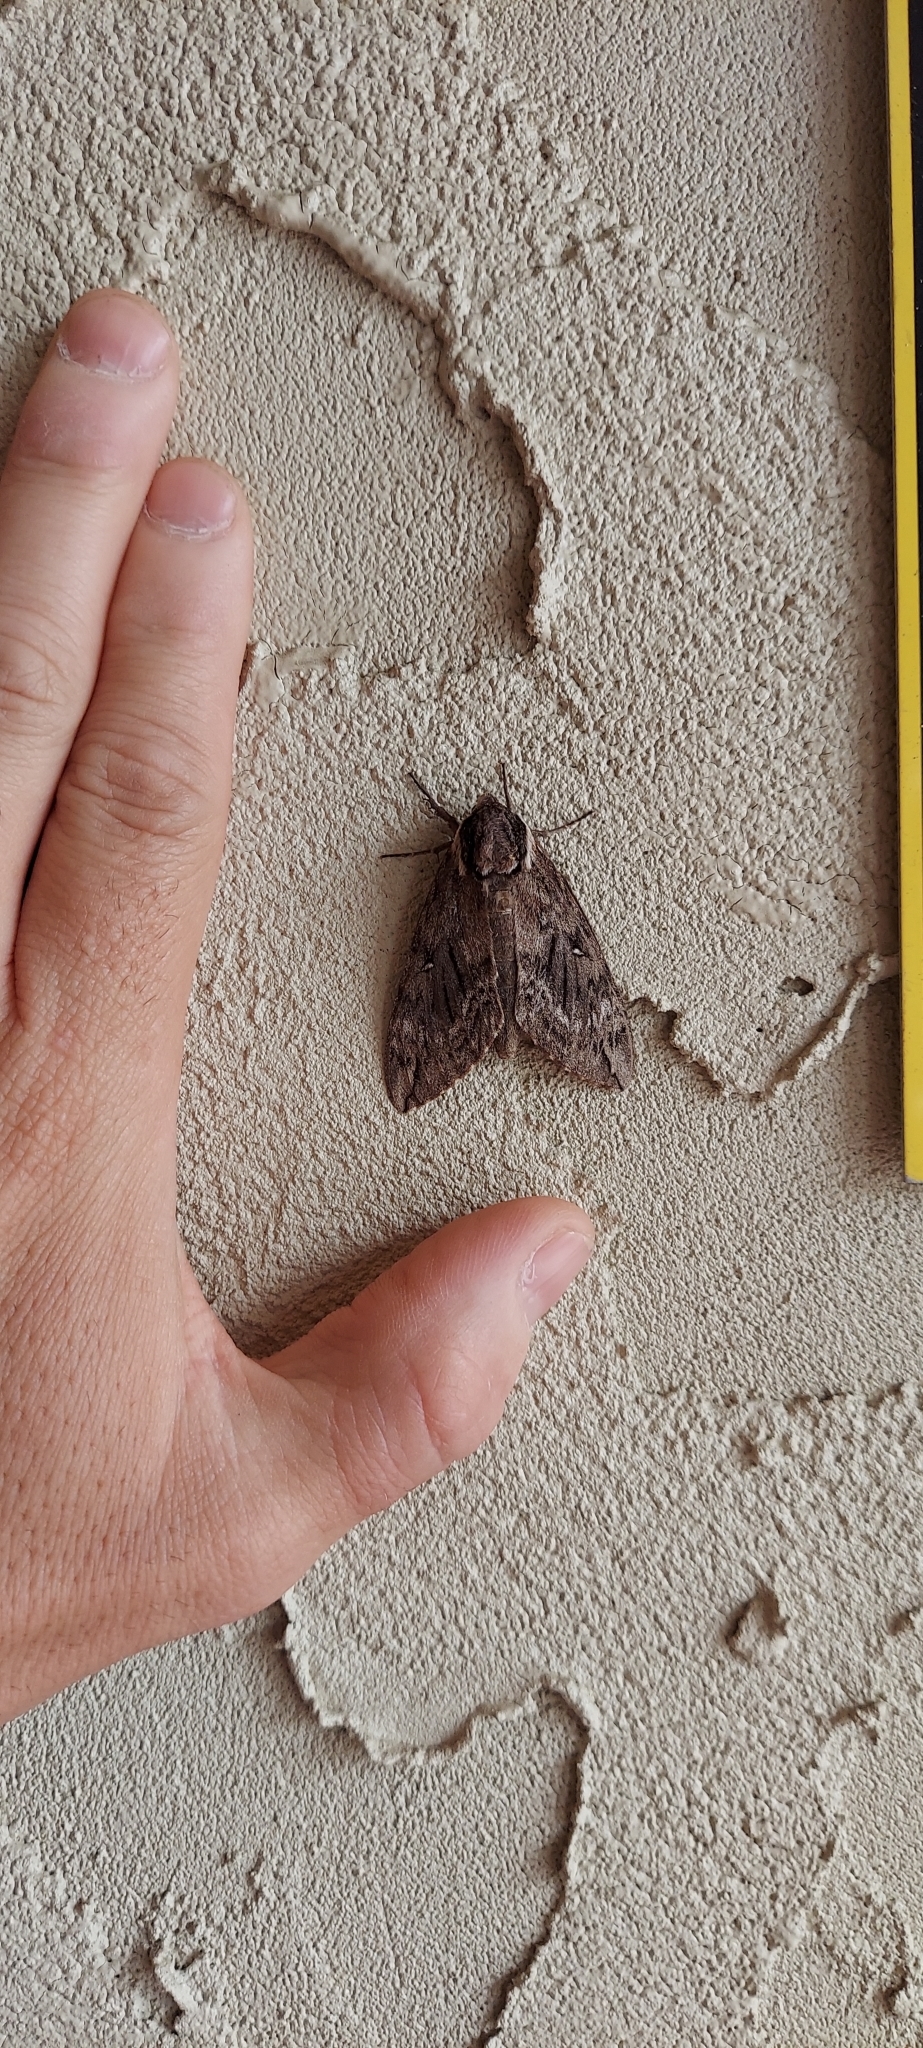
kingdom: Animalia
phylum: Arthropoda
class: Insecta
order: Lepidoptera
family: Sphingidae
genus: Ceratomia
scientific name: Ceratomia catalpae
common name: Catalpa hornworm
